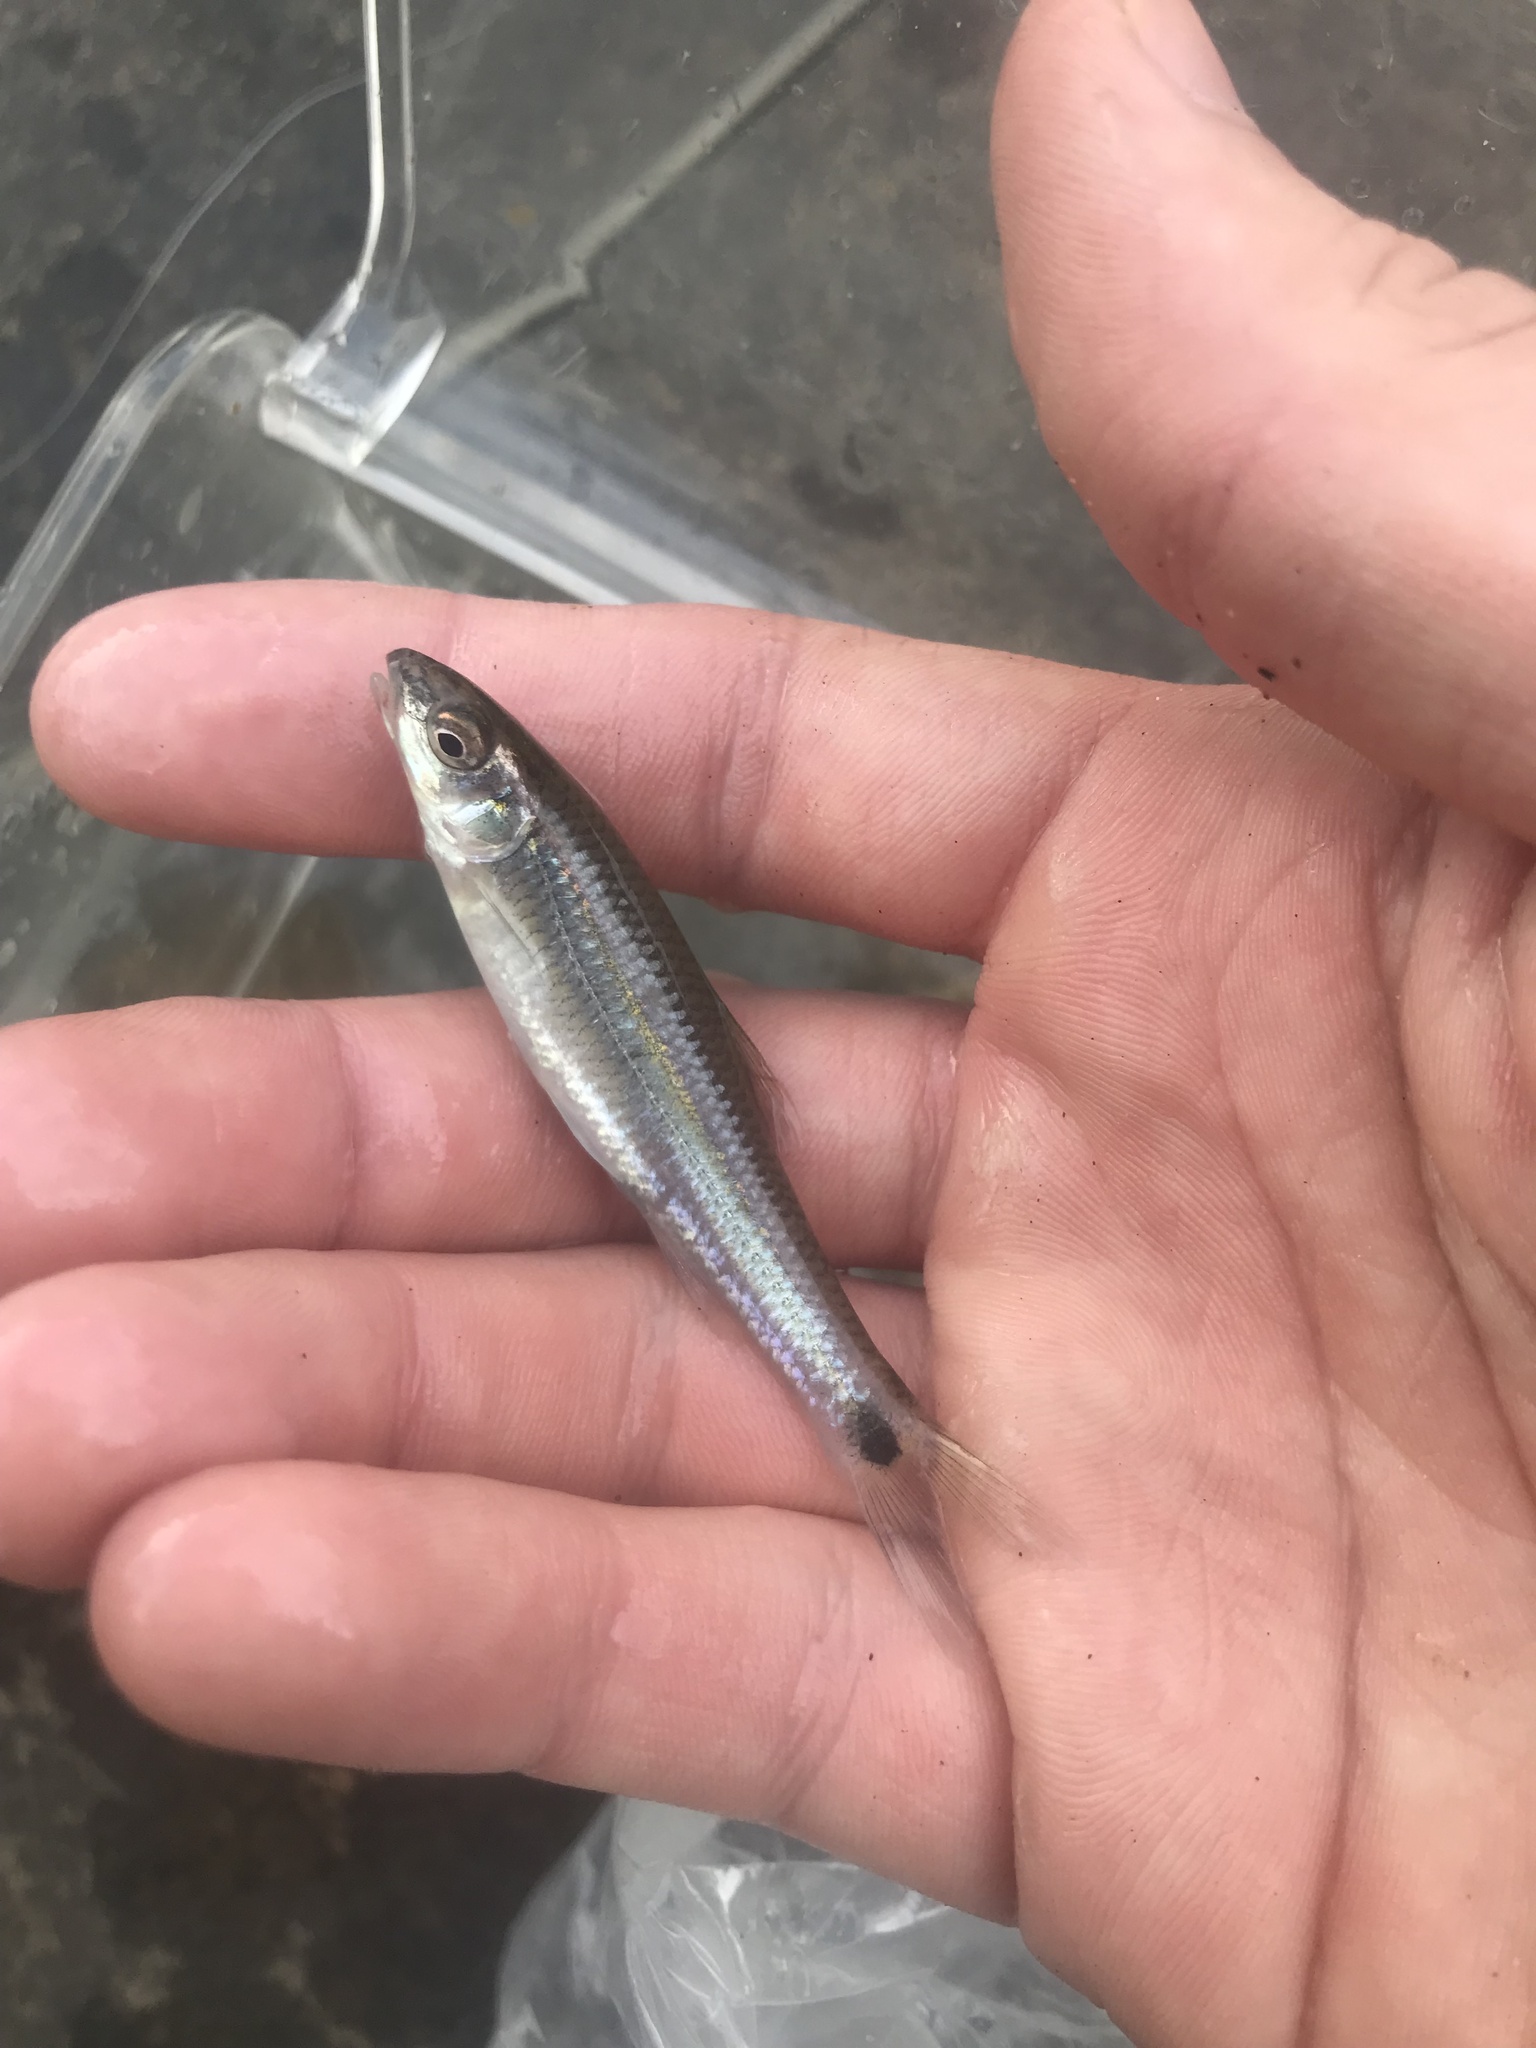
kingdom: Animalia
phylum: Chordata
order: Cypriniformes
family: Cyprinidae
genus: Cyprinella
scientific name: Cyprinella stigmatura
